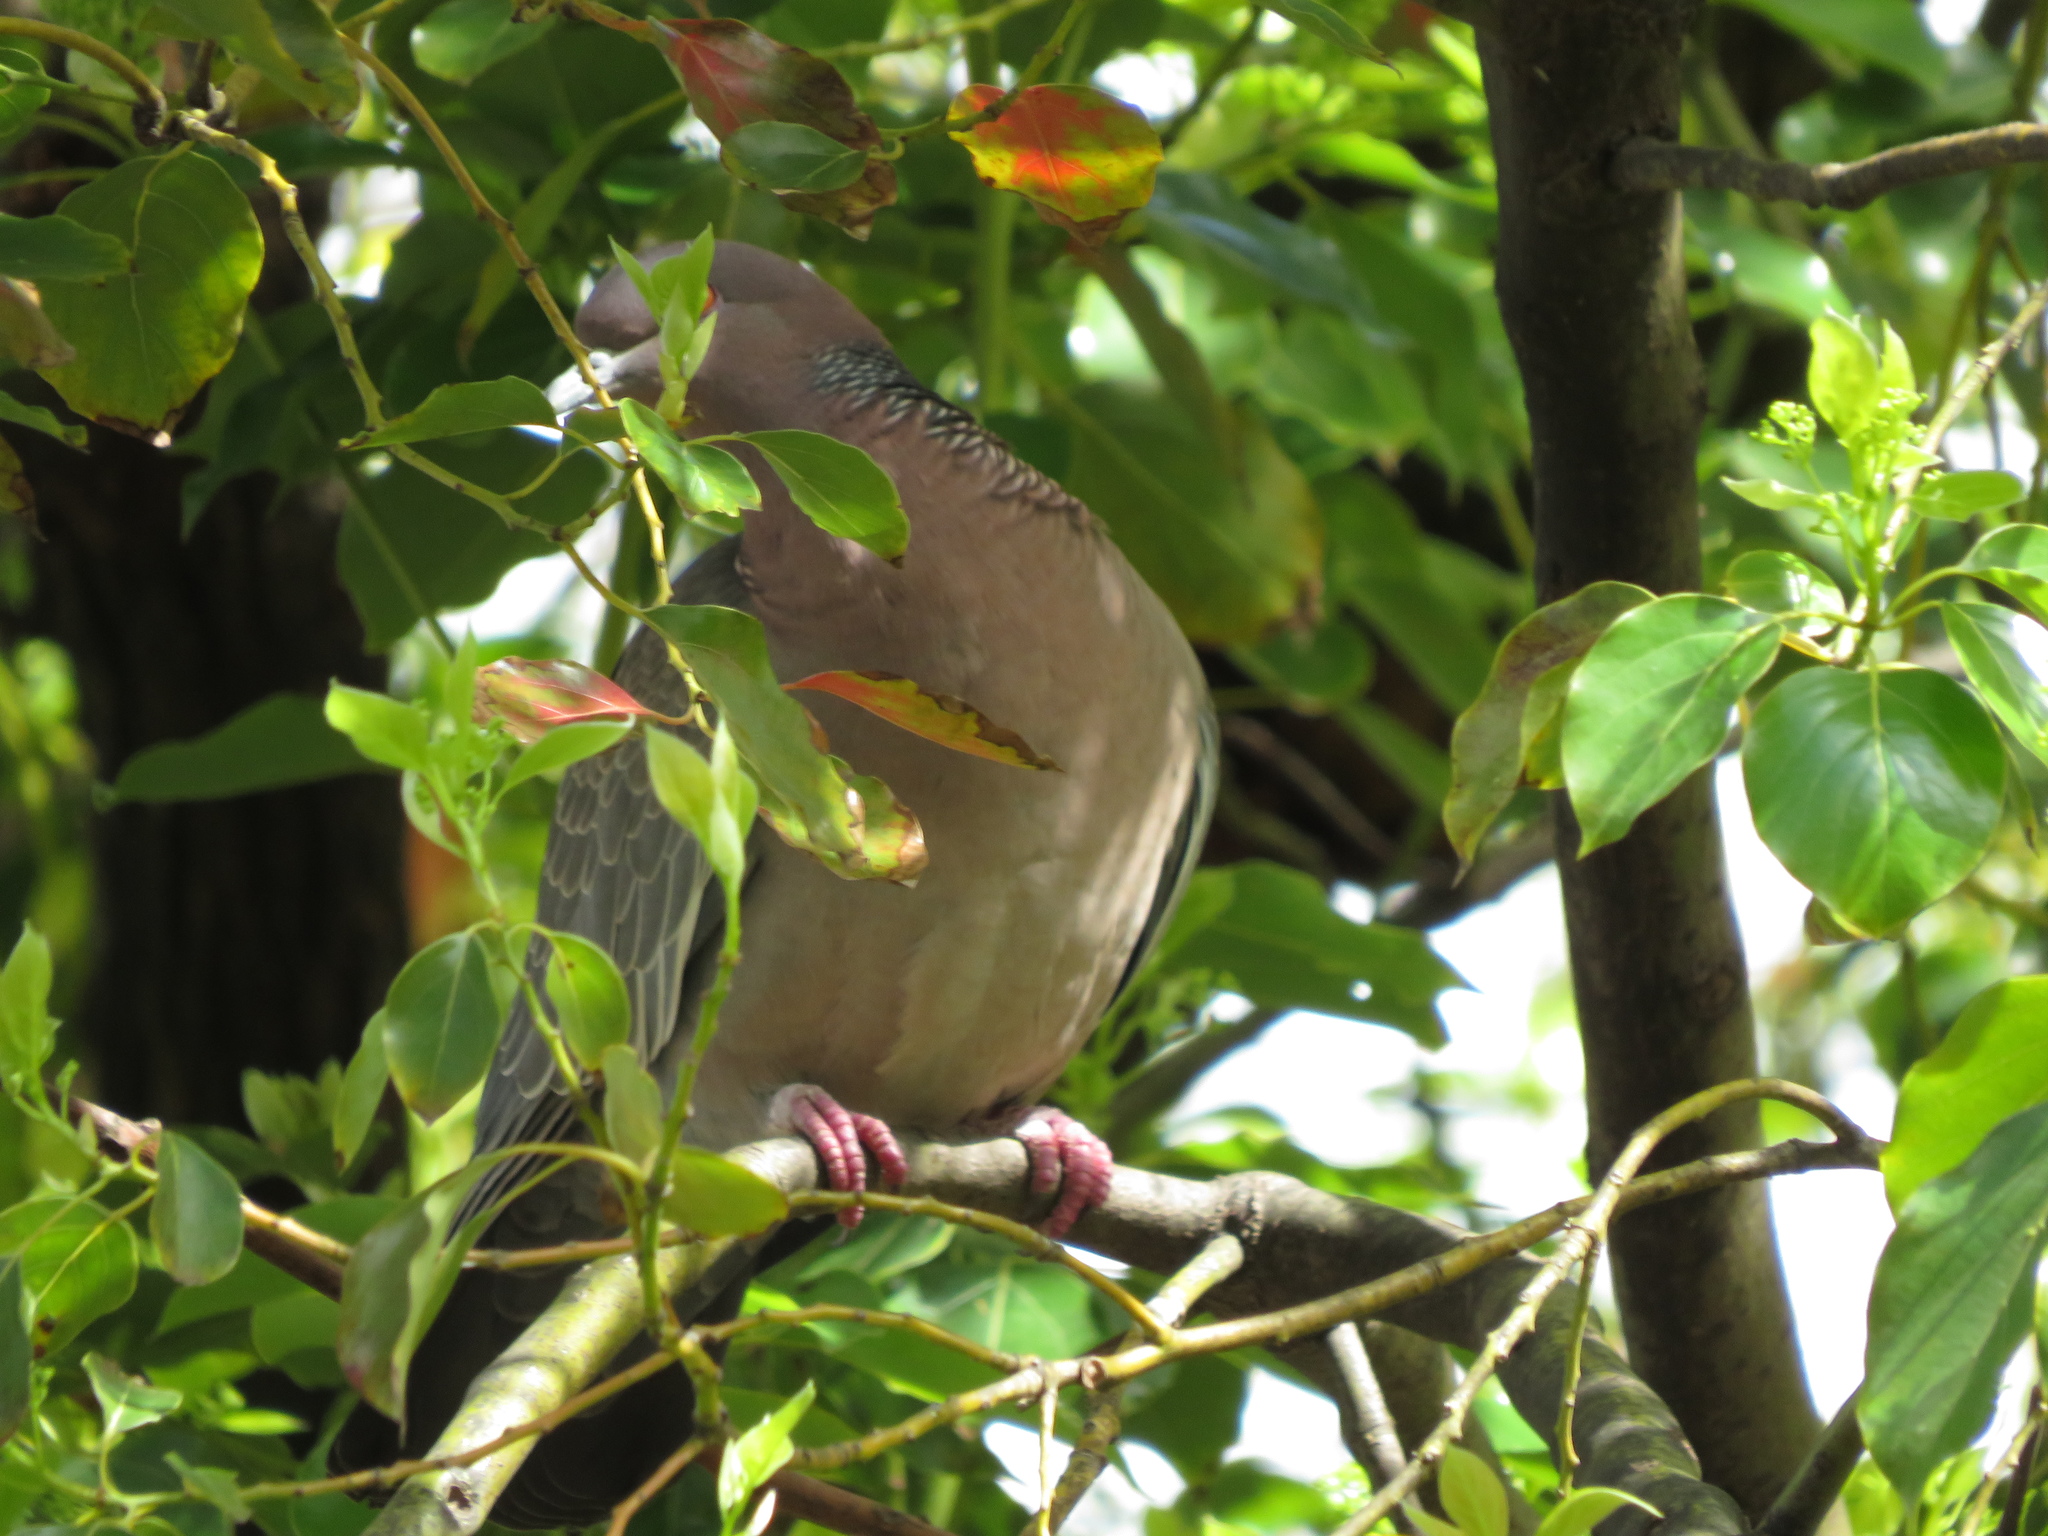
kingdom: Animalia
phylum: Chordata
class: Aves
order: Columbiformes
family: Columbidae
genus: Patagioenas
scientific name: Patagioenas picazuro
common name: Picazuro pigeon
